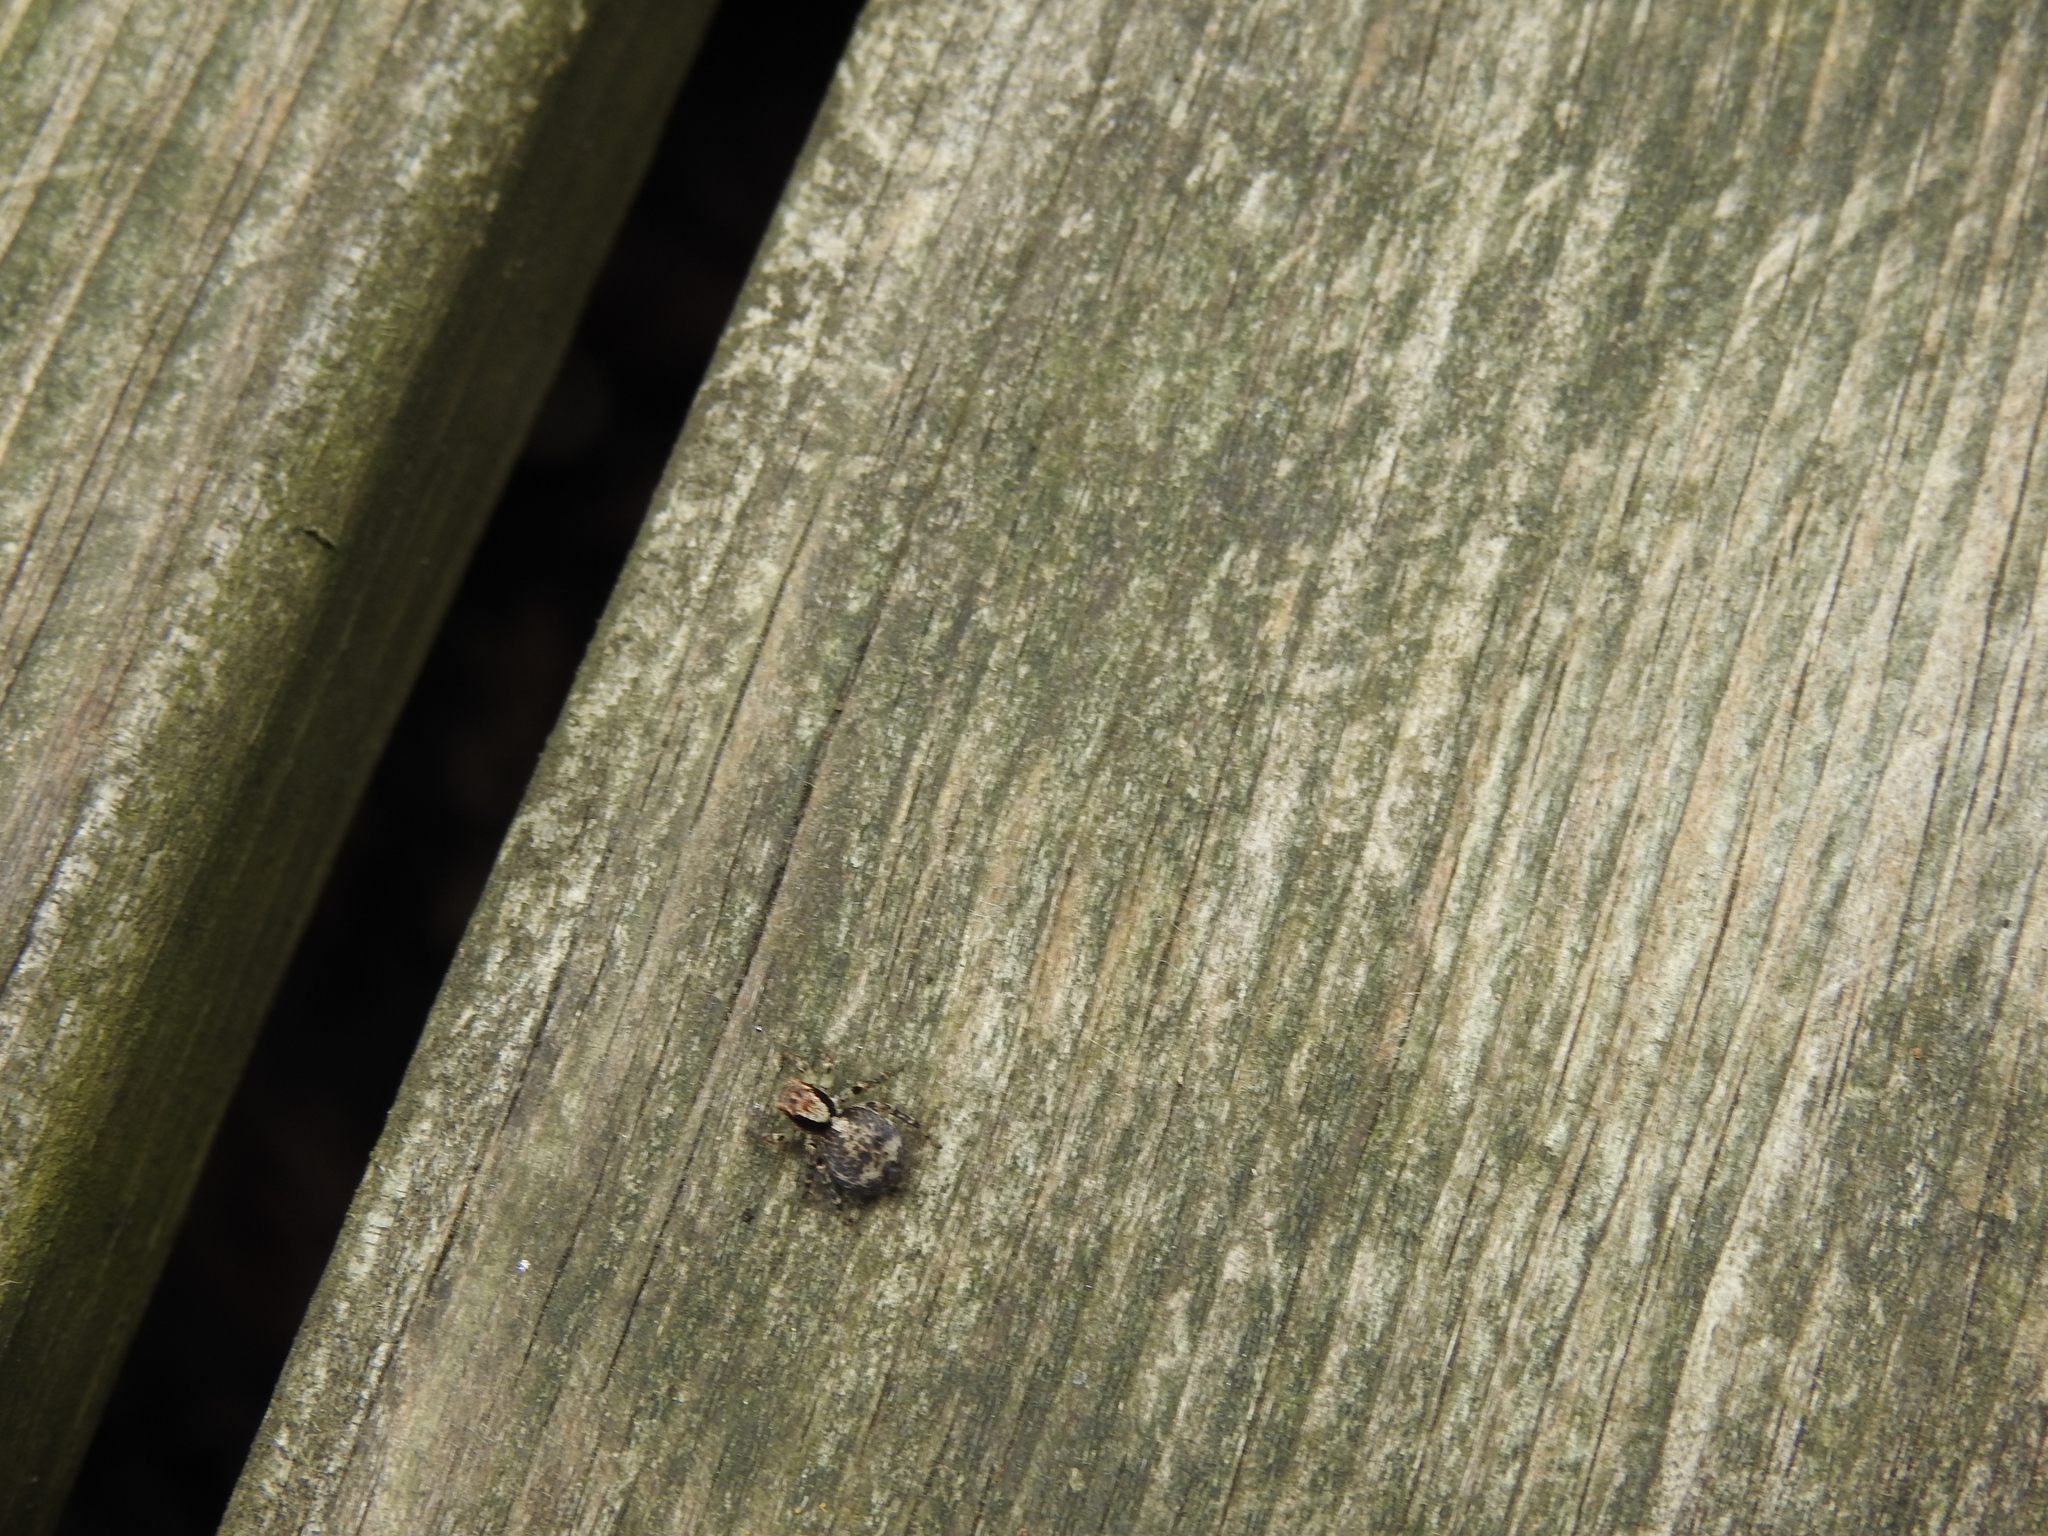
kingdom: Animalia
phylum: Arthropoda
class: Arachnida
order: Araneae
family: Salticidae
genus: Naphrys
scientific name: Naphrys pulex
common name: Flea jumping spider
